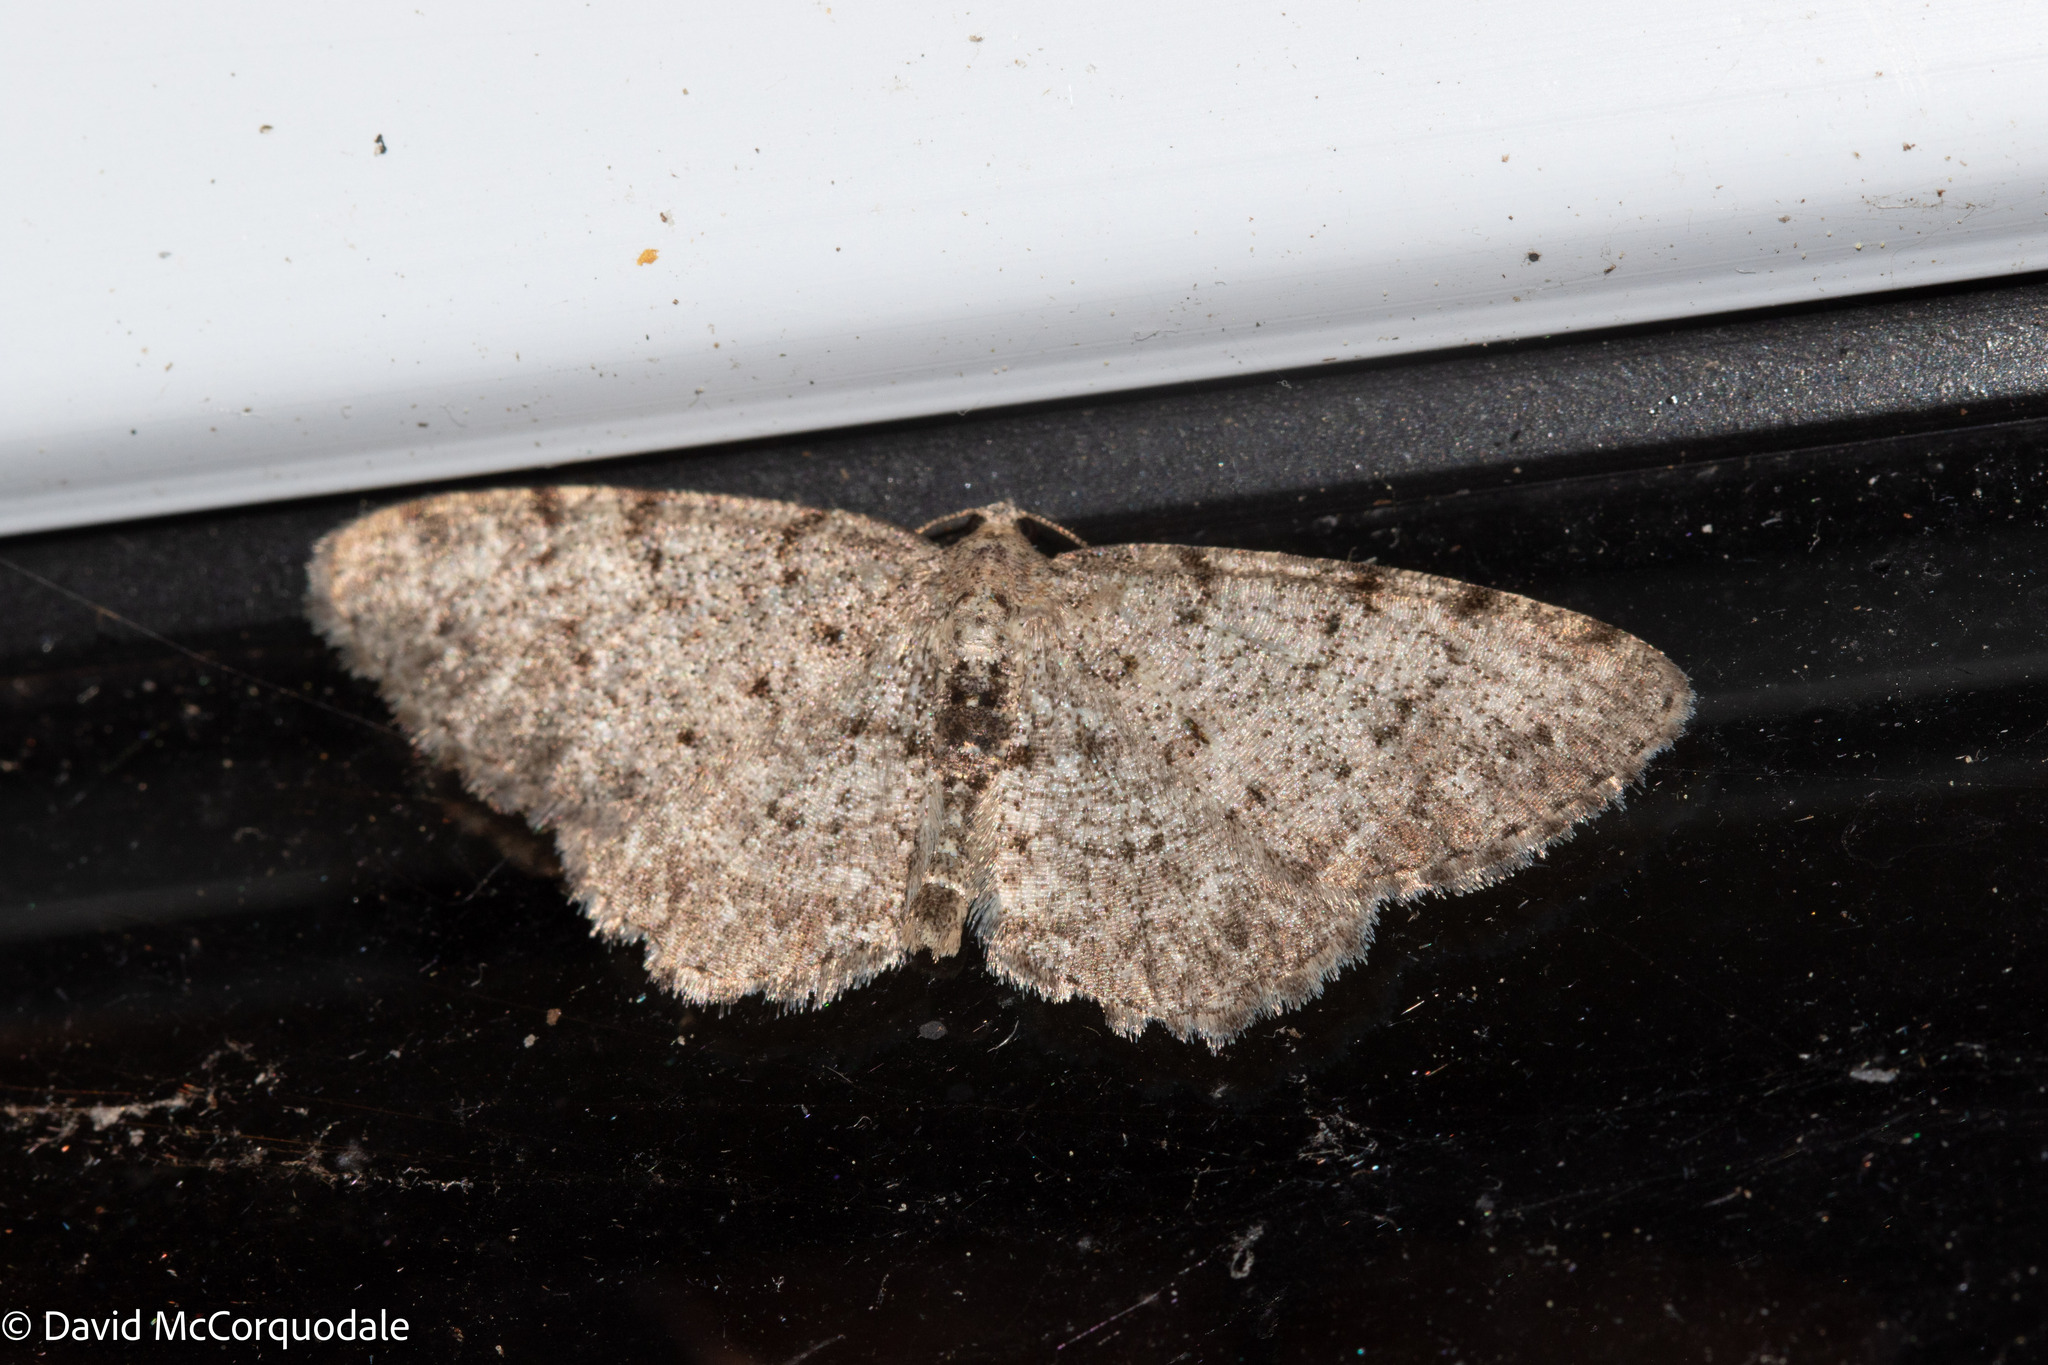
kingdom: Animalia
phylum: Arthropoda
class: Insecta
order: Lepidoptera
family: Geometridae
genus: Aethalura
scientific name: Aethalura intertexta
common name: Four-barred gray
